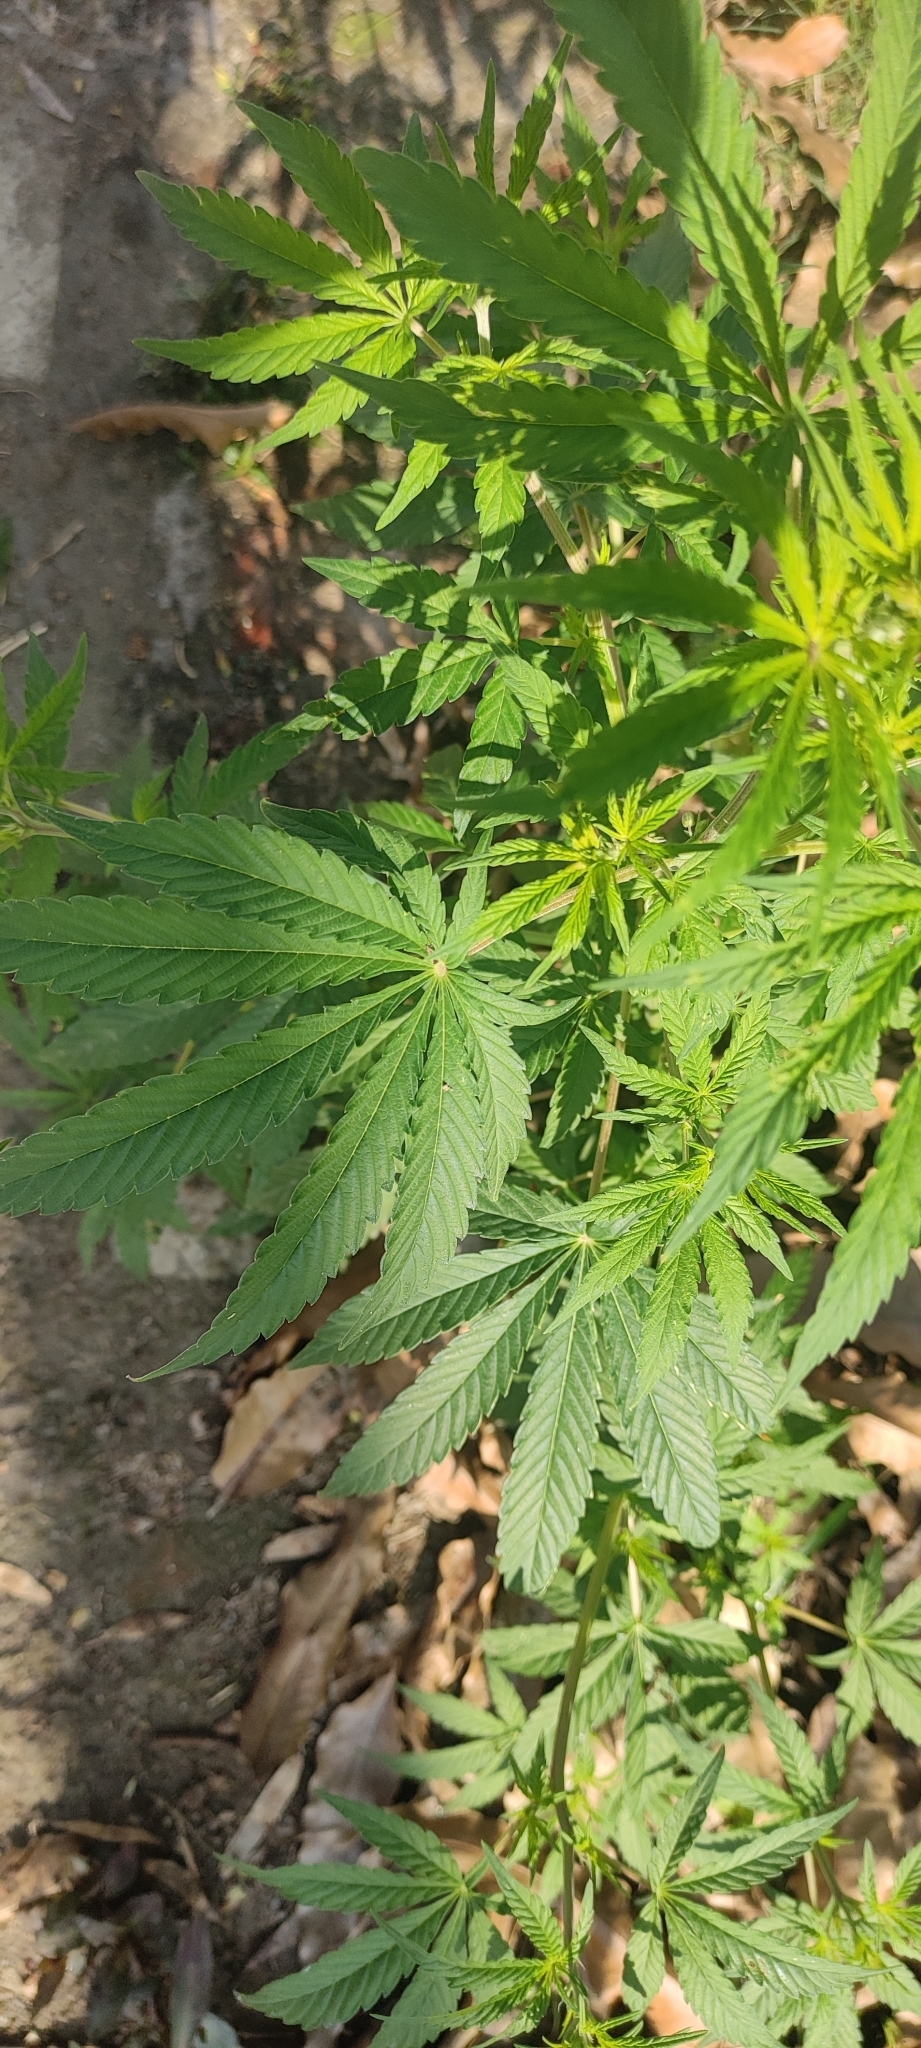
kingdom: Plantae
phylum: Tracheophyta
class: Magnoliopsida
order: Rosales
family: Cannabaceae
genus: Cannabis
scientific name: Cannabis sativa
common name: Hemp
